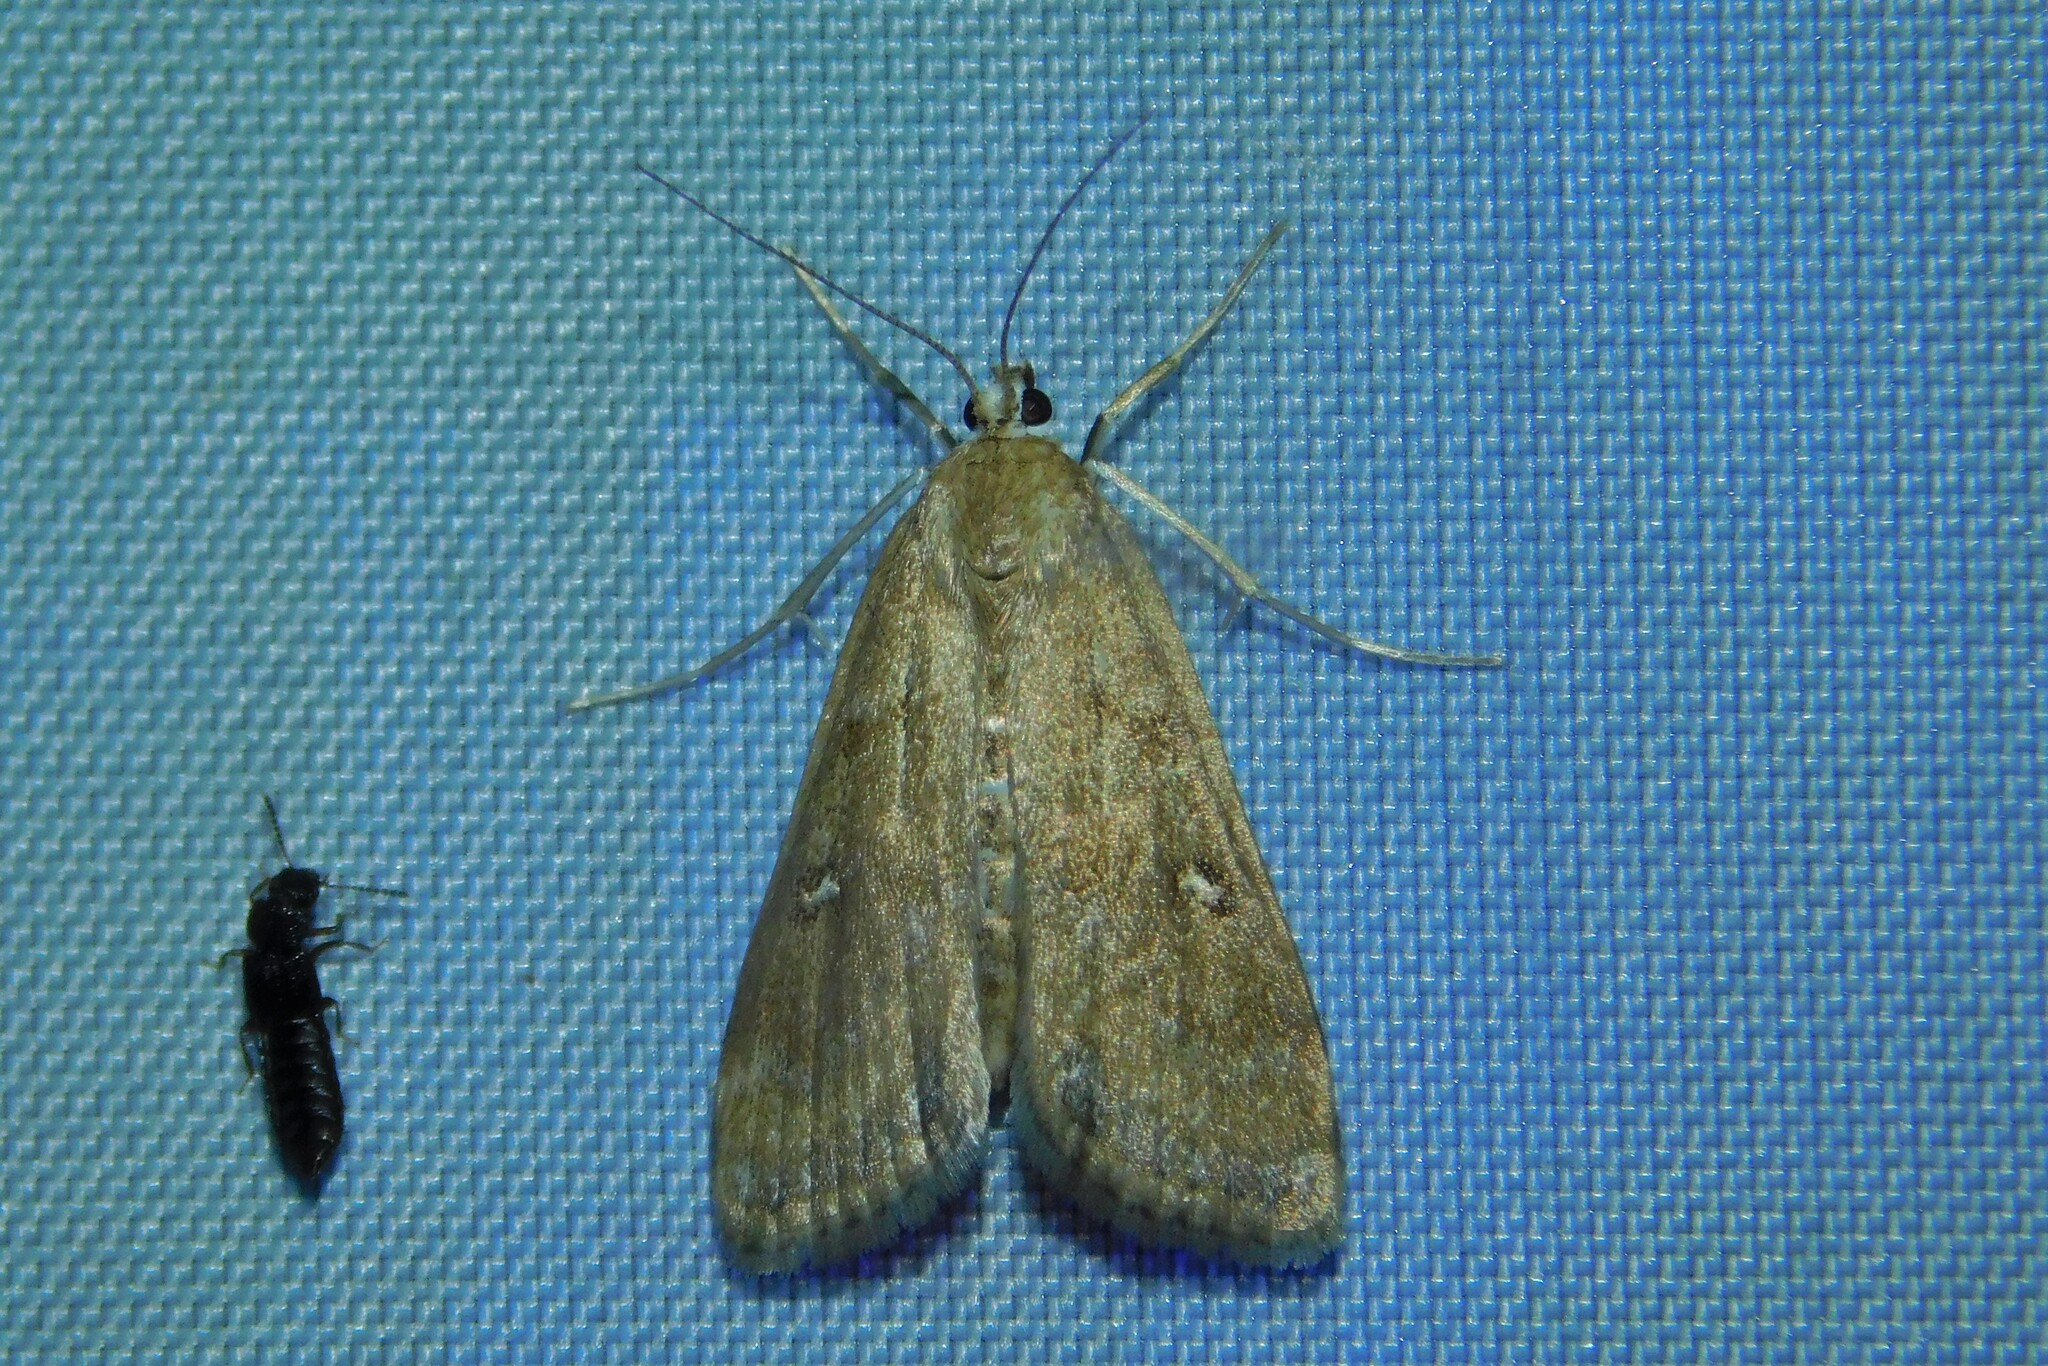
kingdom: Animalia
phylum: Arthropoda
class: Insecta
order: Lepidoptera
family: Crambidae
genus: Parapoynx
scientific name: Parapoynx stratiotata
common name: Ringed china-mark
